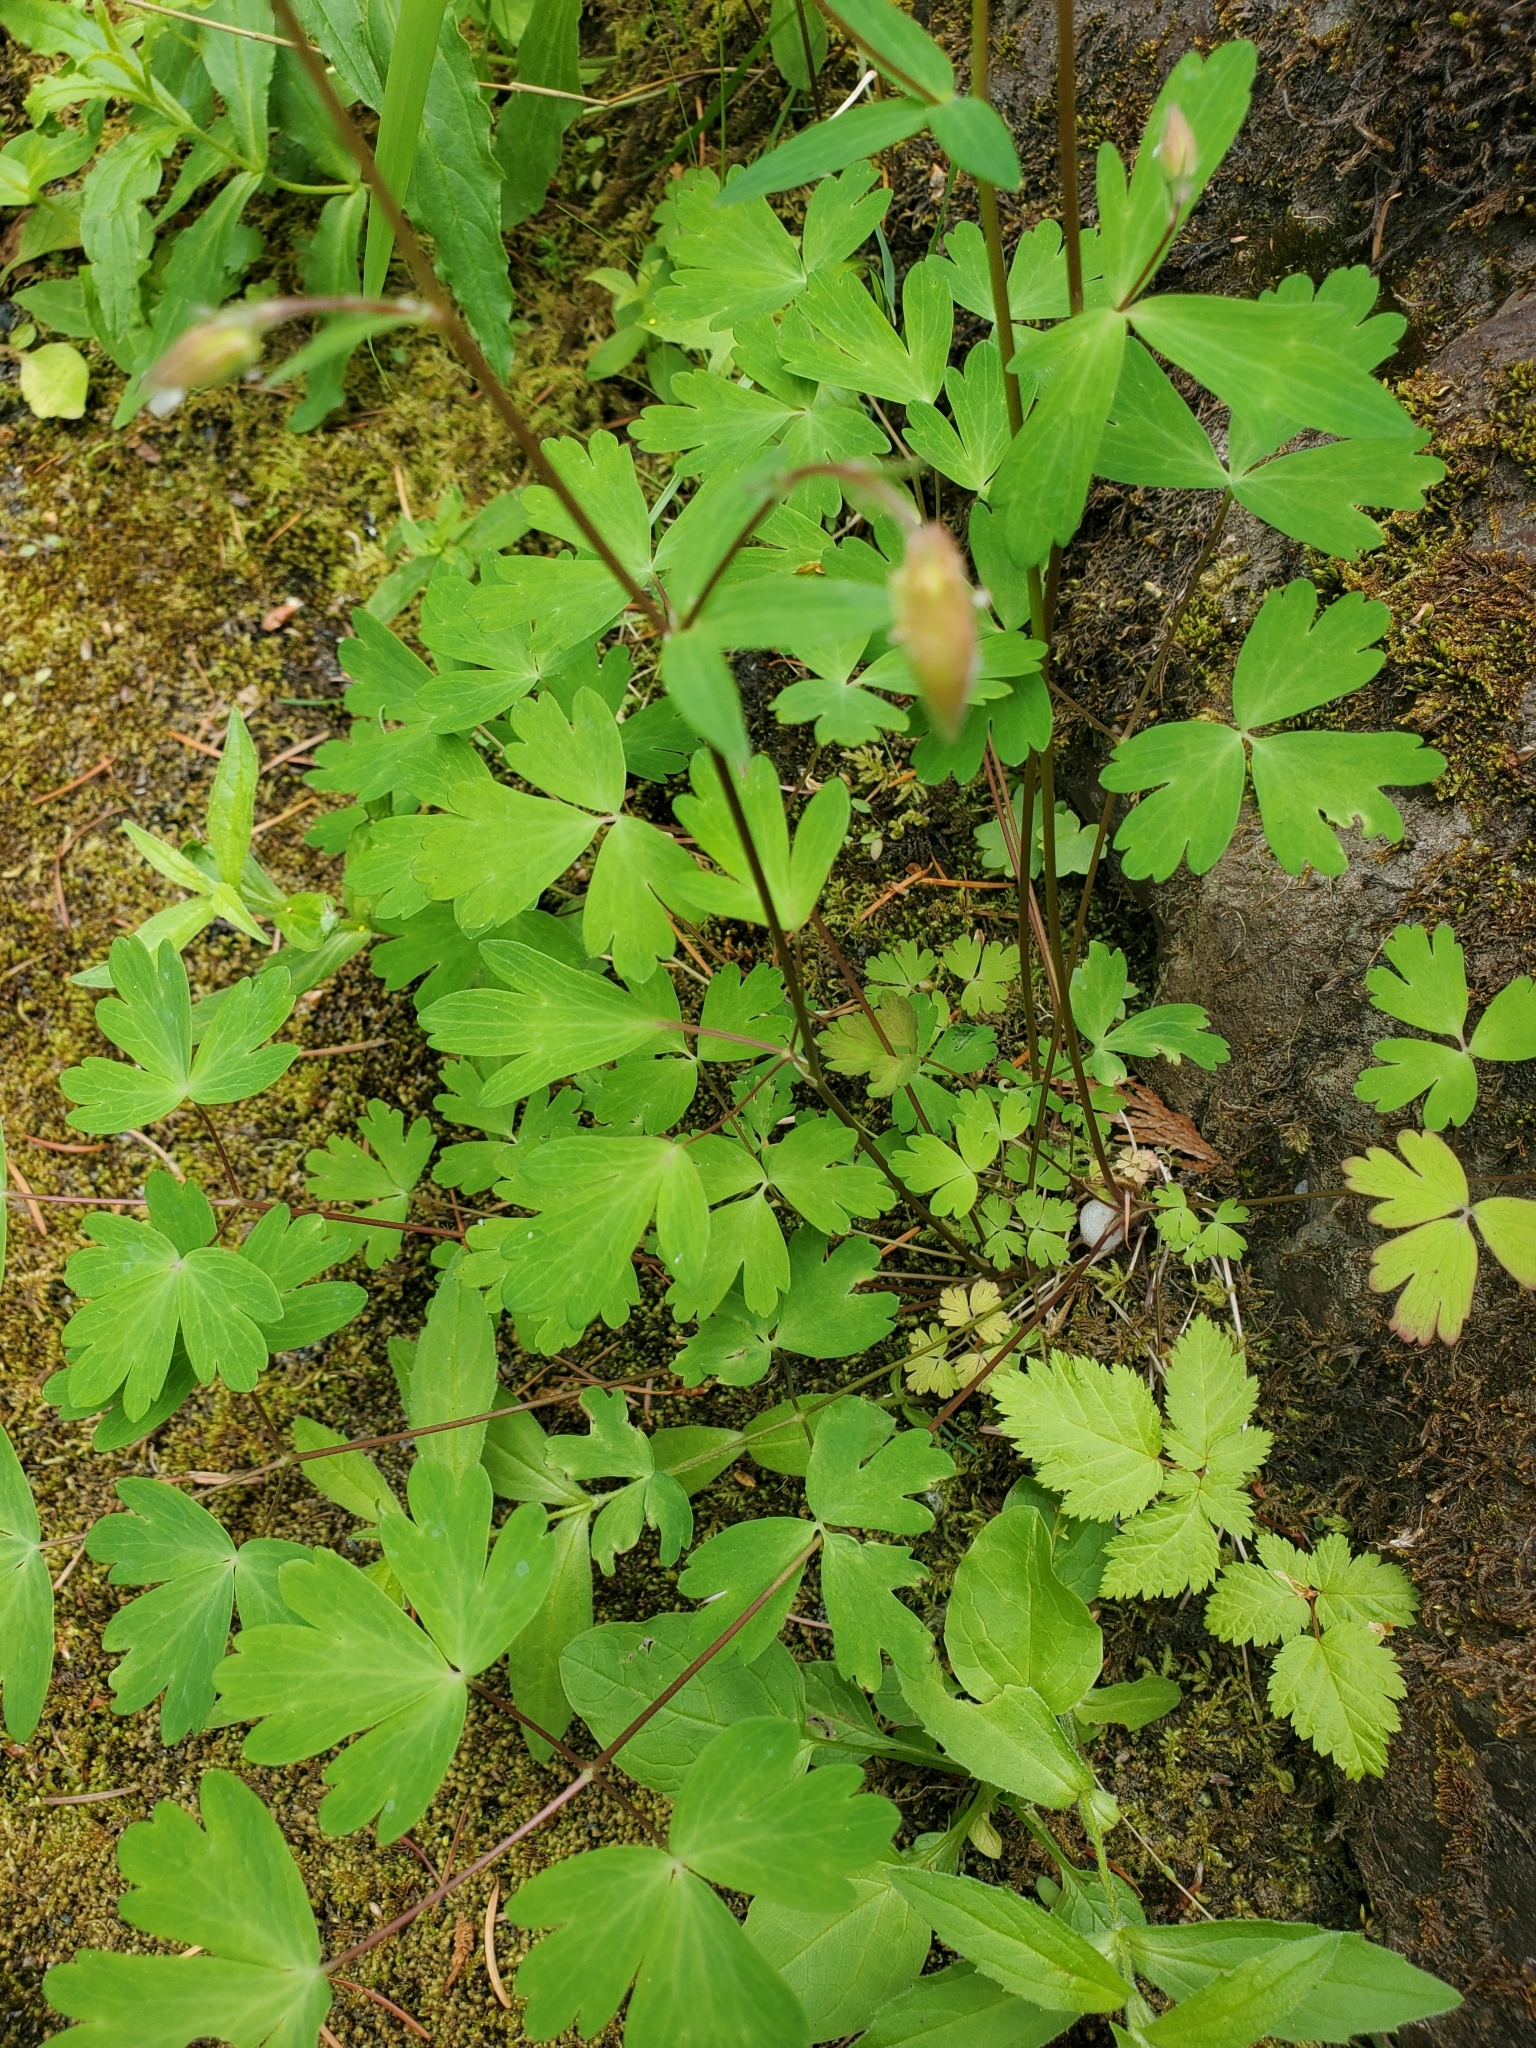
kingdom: Plantae
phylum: Tracheophyta
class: Magnoliopsida
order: Ranunculales
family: Ranunculaceae
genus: Aquilegia
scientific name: Aquilegia formosa
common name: Sitka columbine
